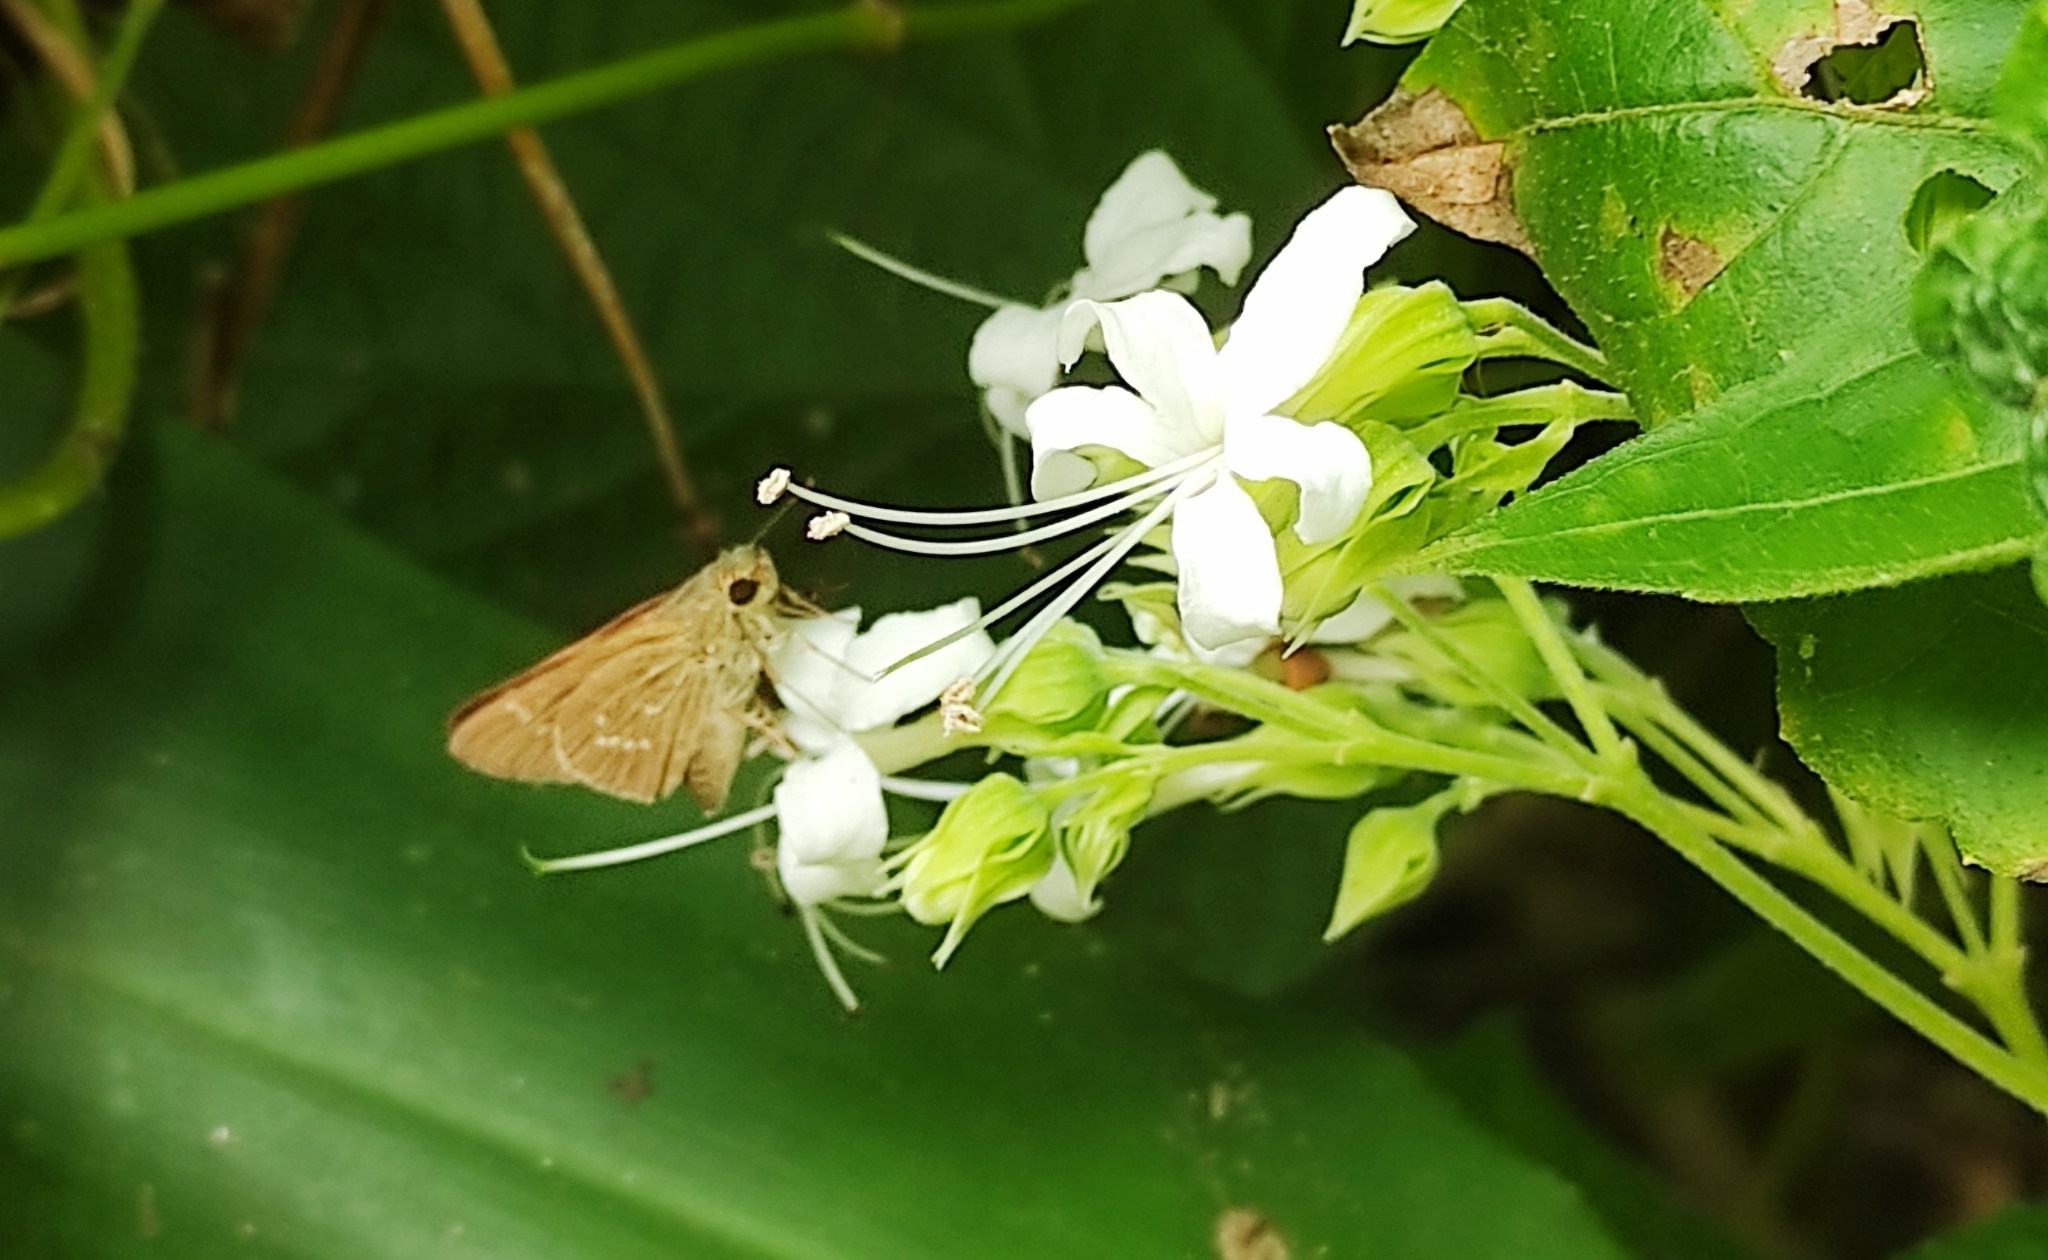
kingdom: Animalia
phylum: Arthropoda
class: Insecta
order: Lepidoptera
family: Hesperiidae
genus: Parnara
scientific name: Parnara naso
